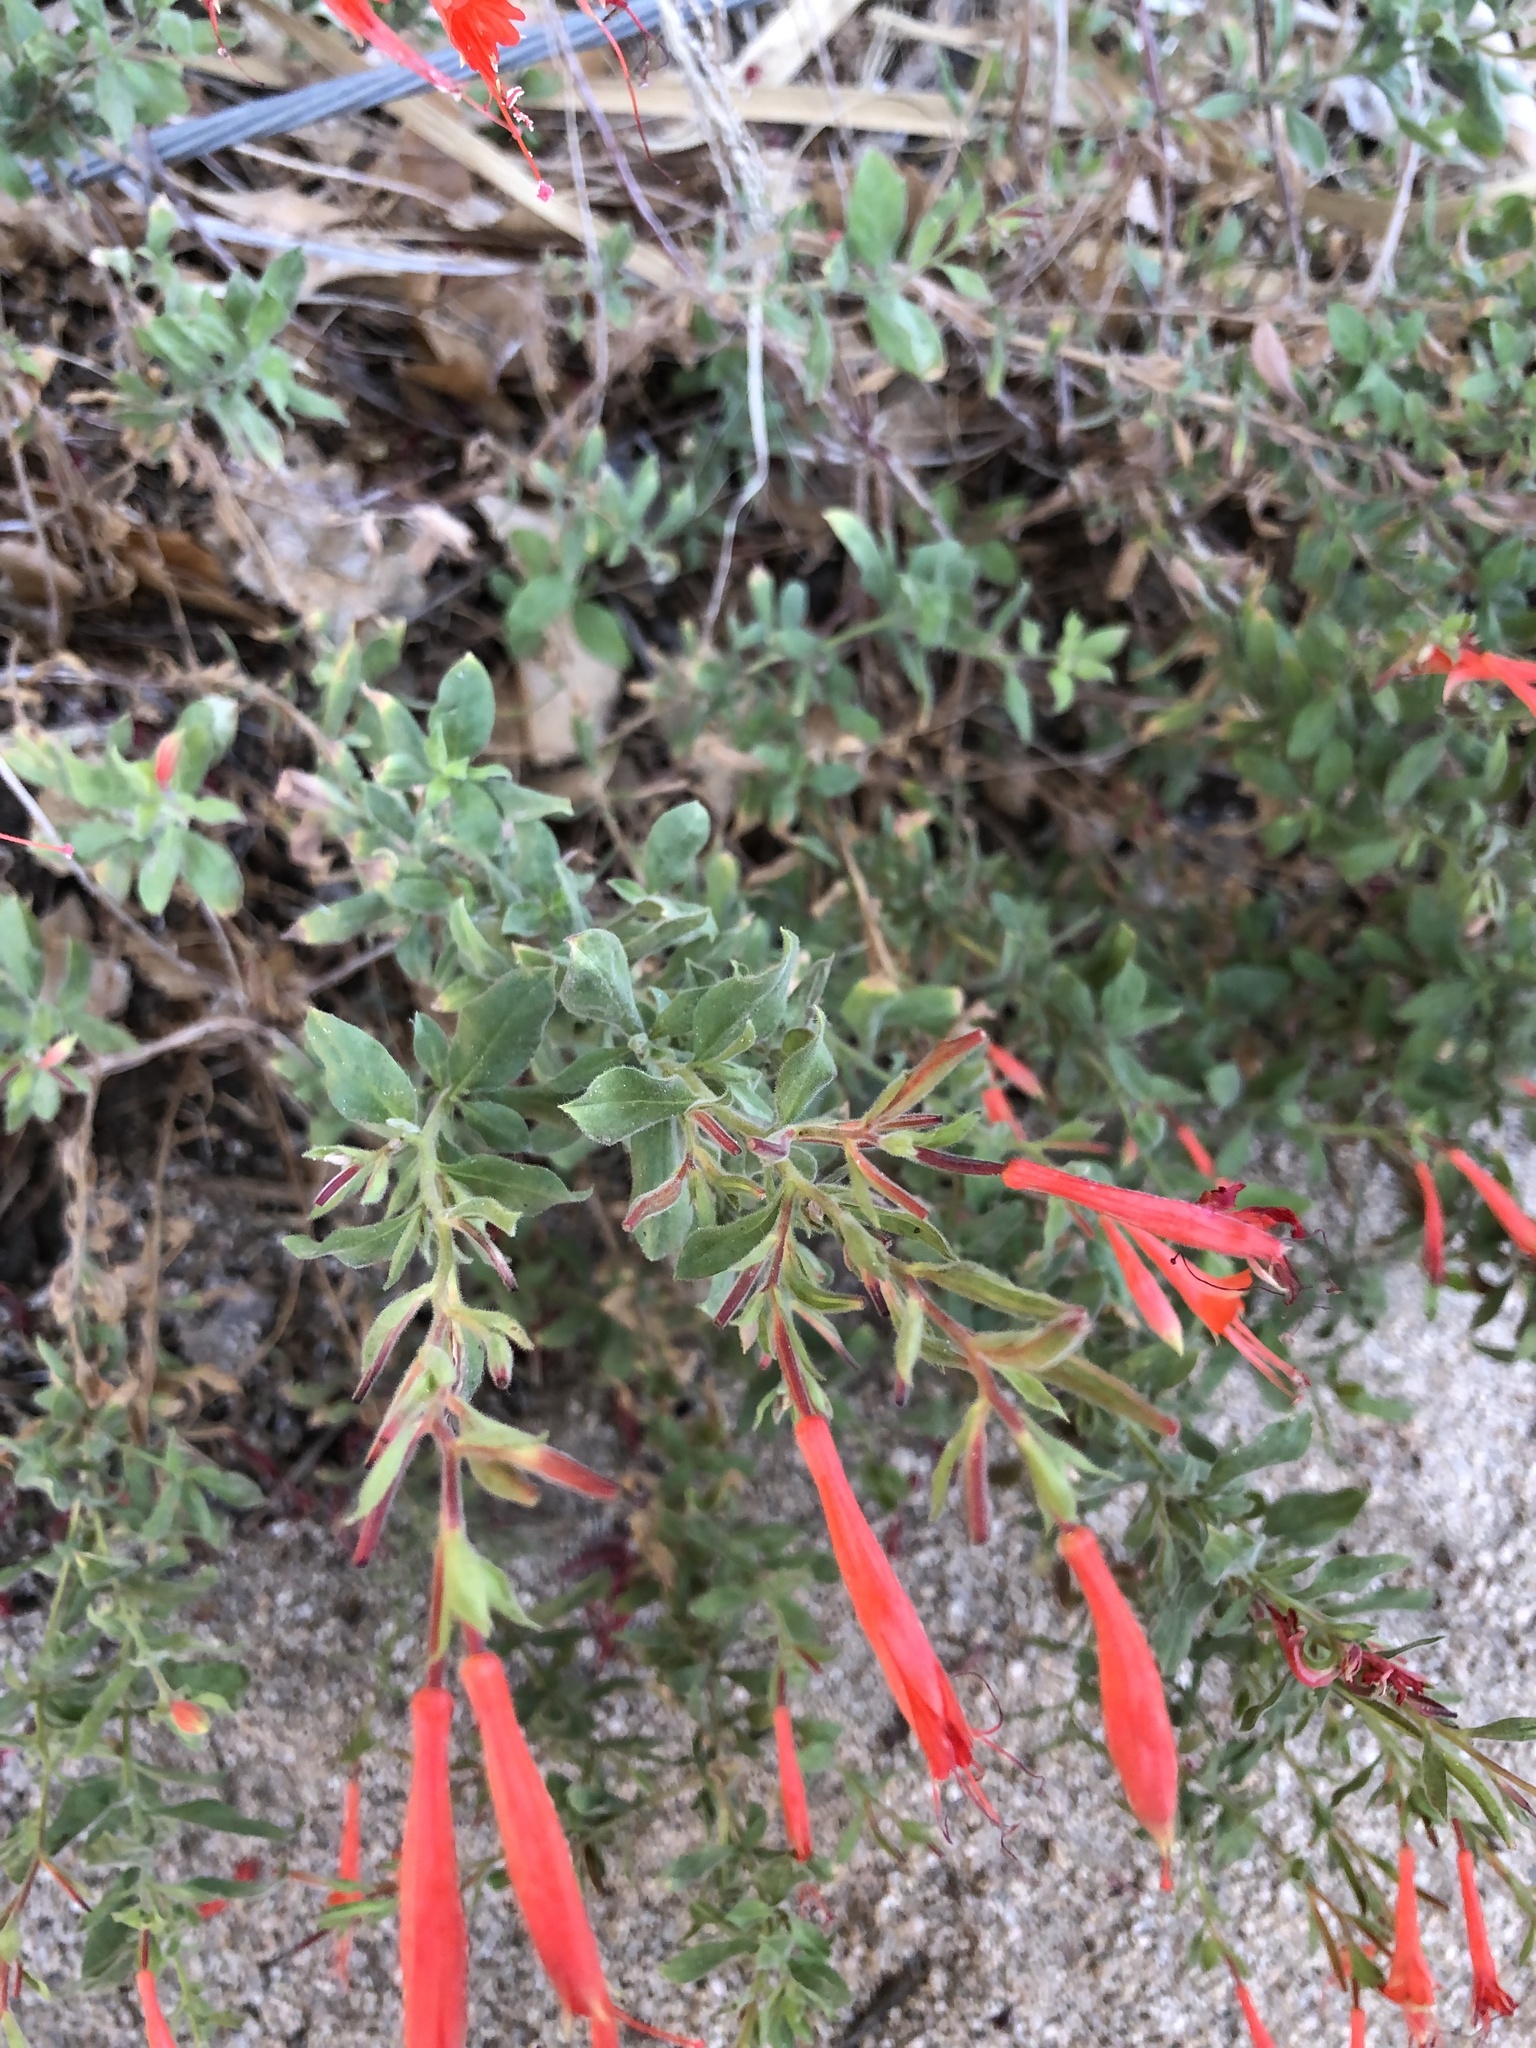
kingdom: Plantae
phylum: Tracheophyta
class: Magnoliopsida
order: Myrtales
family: Onagraceae
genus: Epilobium
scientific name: Epilobium canum
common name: California-fuchsia
